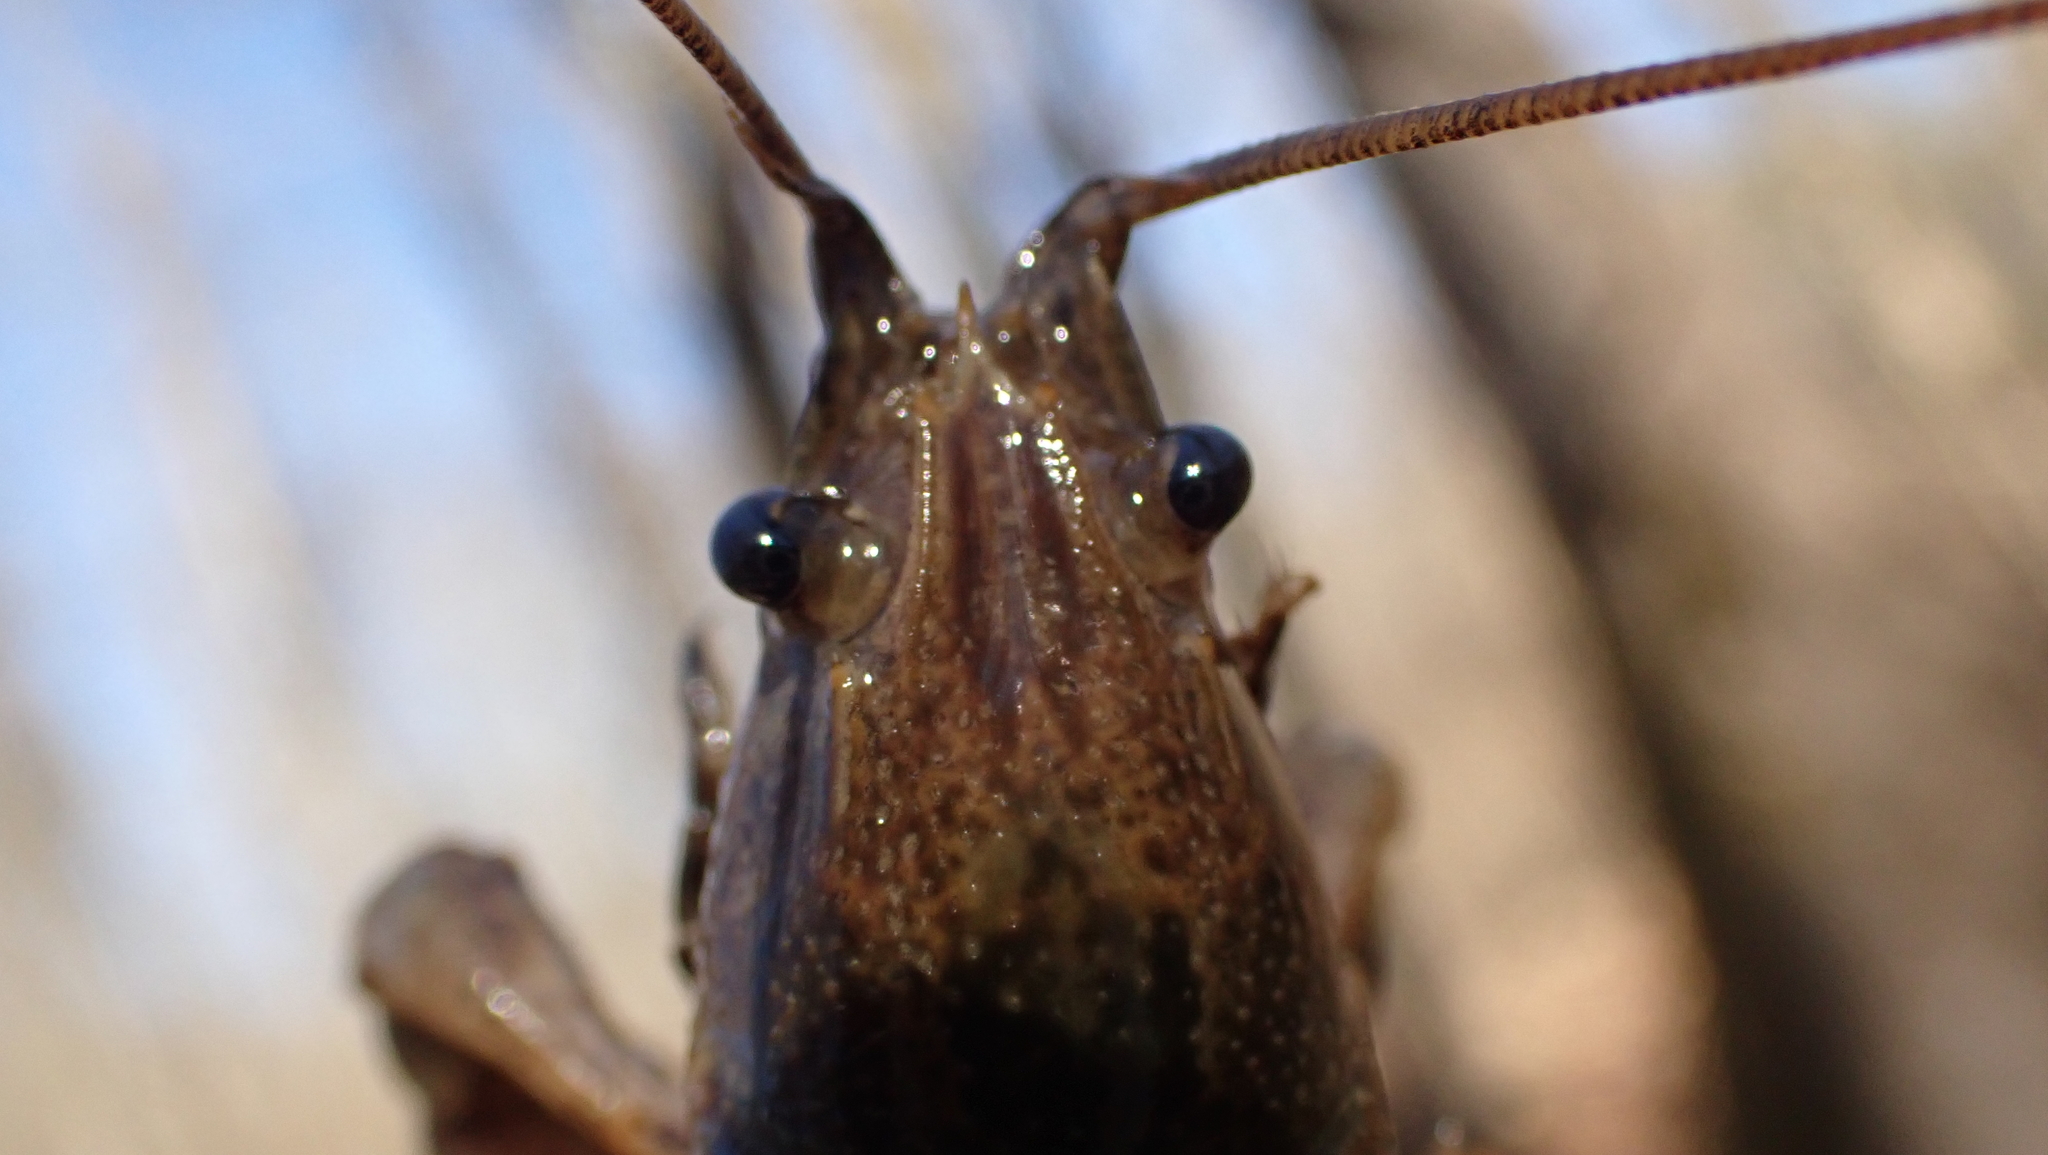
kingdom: Animalia
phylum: Arthropoda
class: Malacostraca
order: Decapoda
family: Cambaridae
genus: Faxonius
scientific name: Faxonius rusticus
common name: Rusty crayfish
